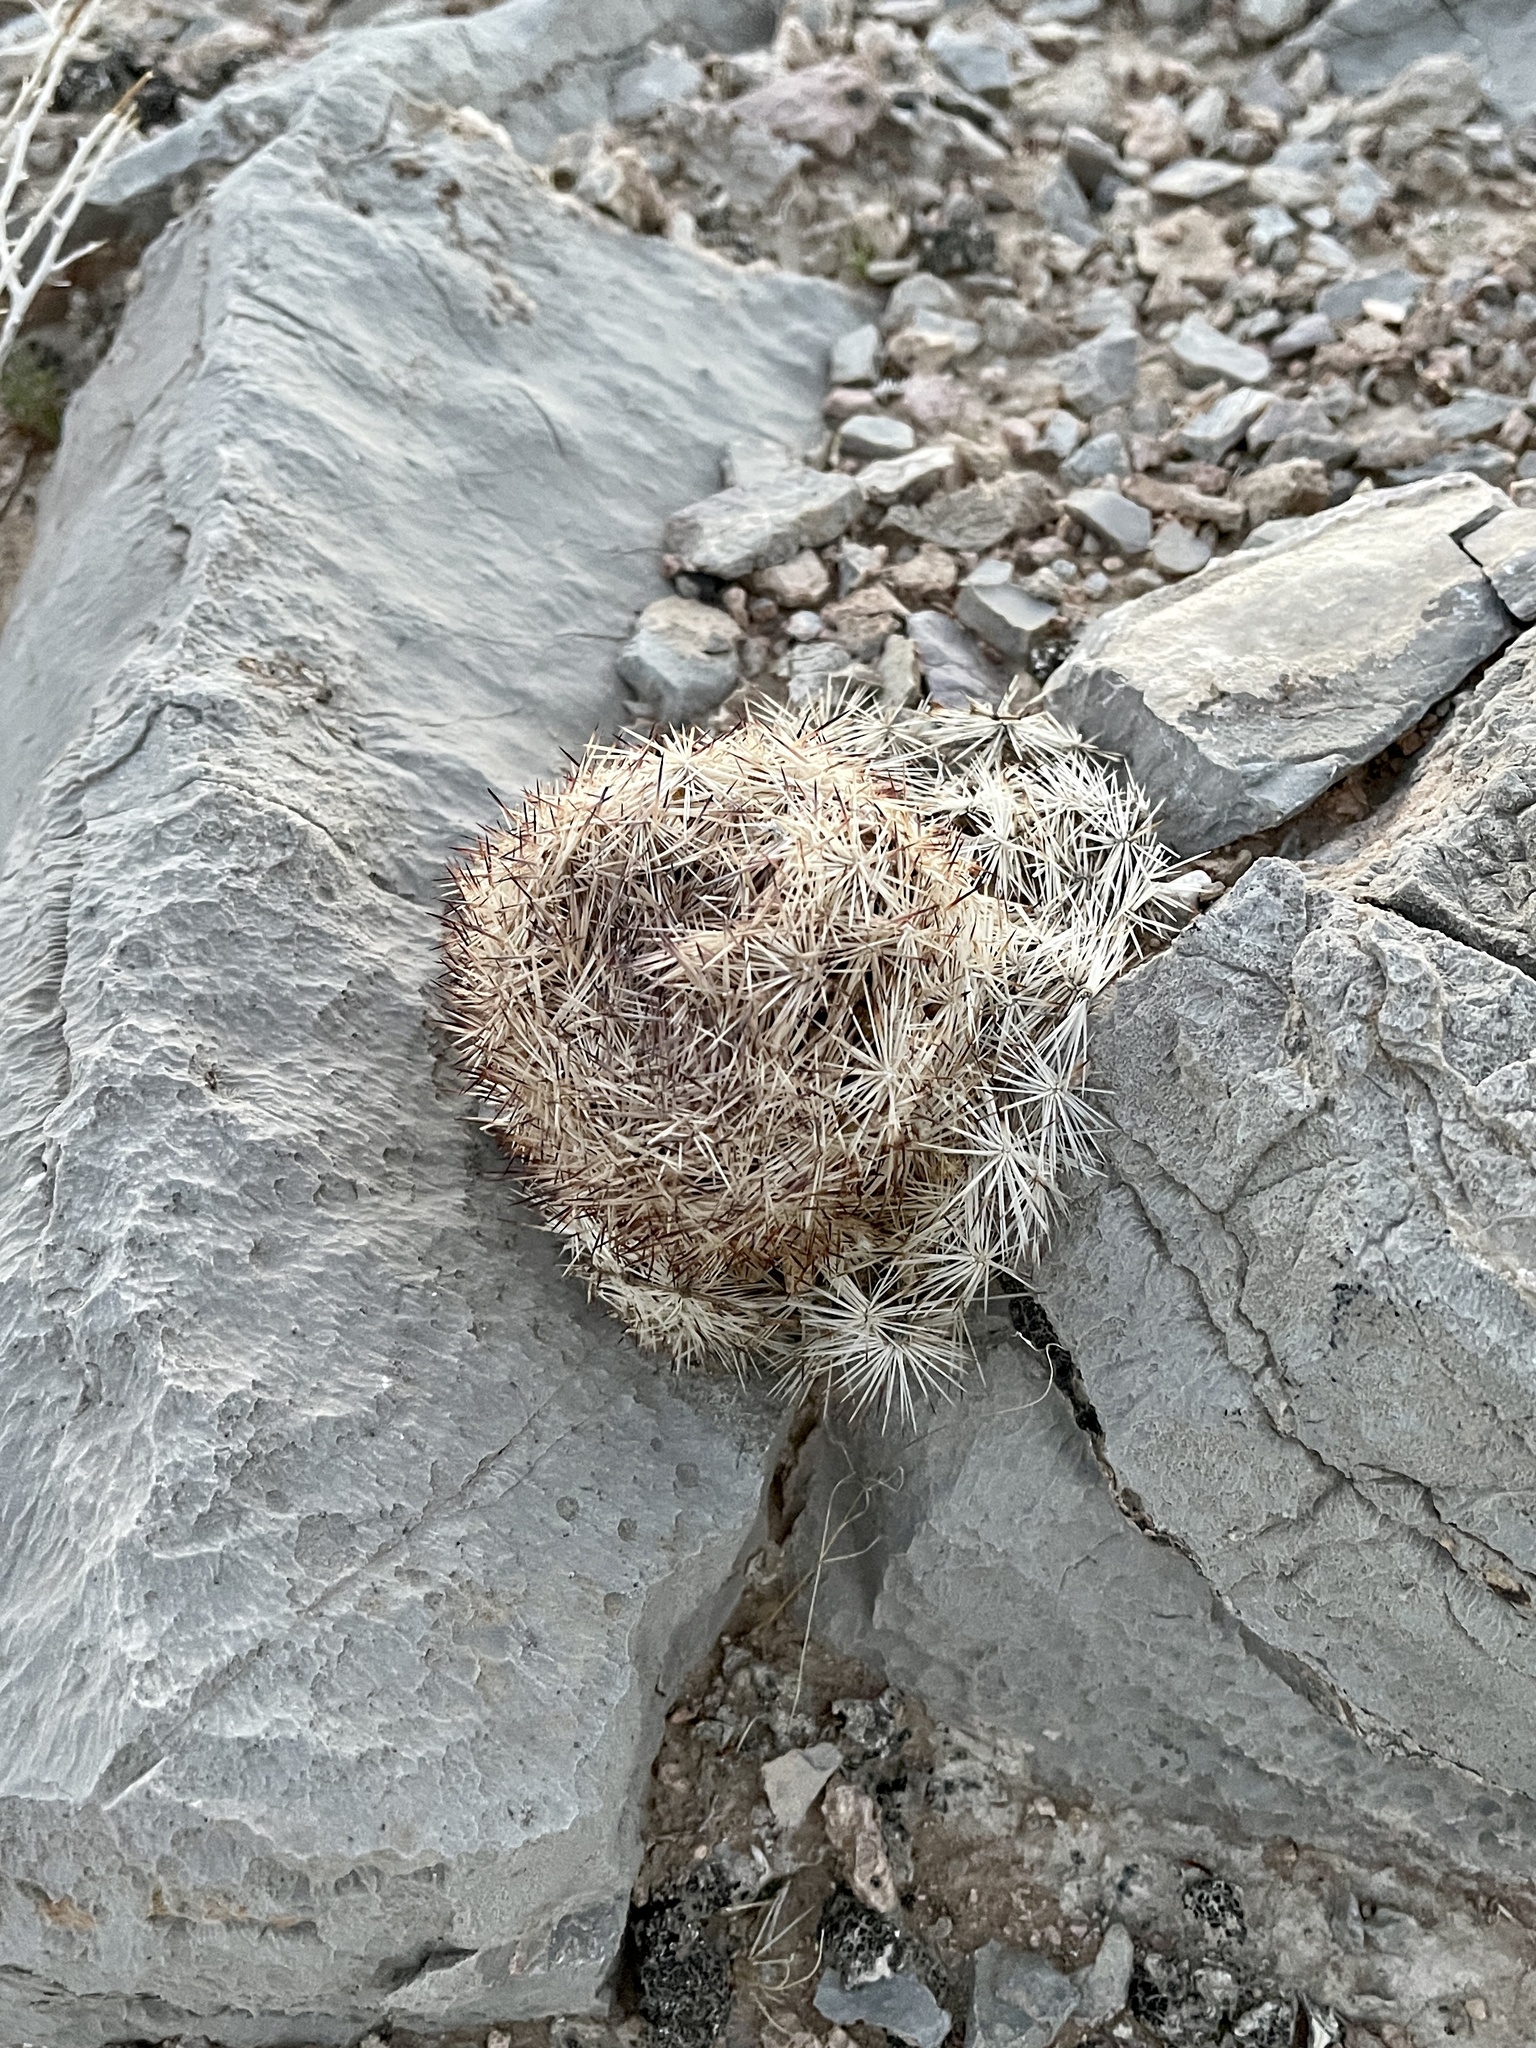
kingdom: Plantae
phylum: Tracheophyta
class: Magnoliopsida
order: Caryophyllales
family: Cactaceae
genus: Pelecyphora
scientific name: Pelecyphora dasyacantha
